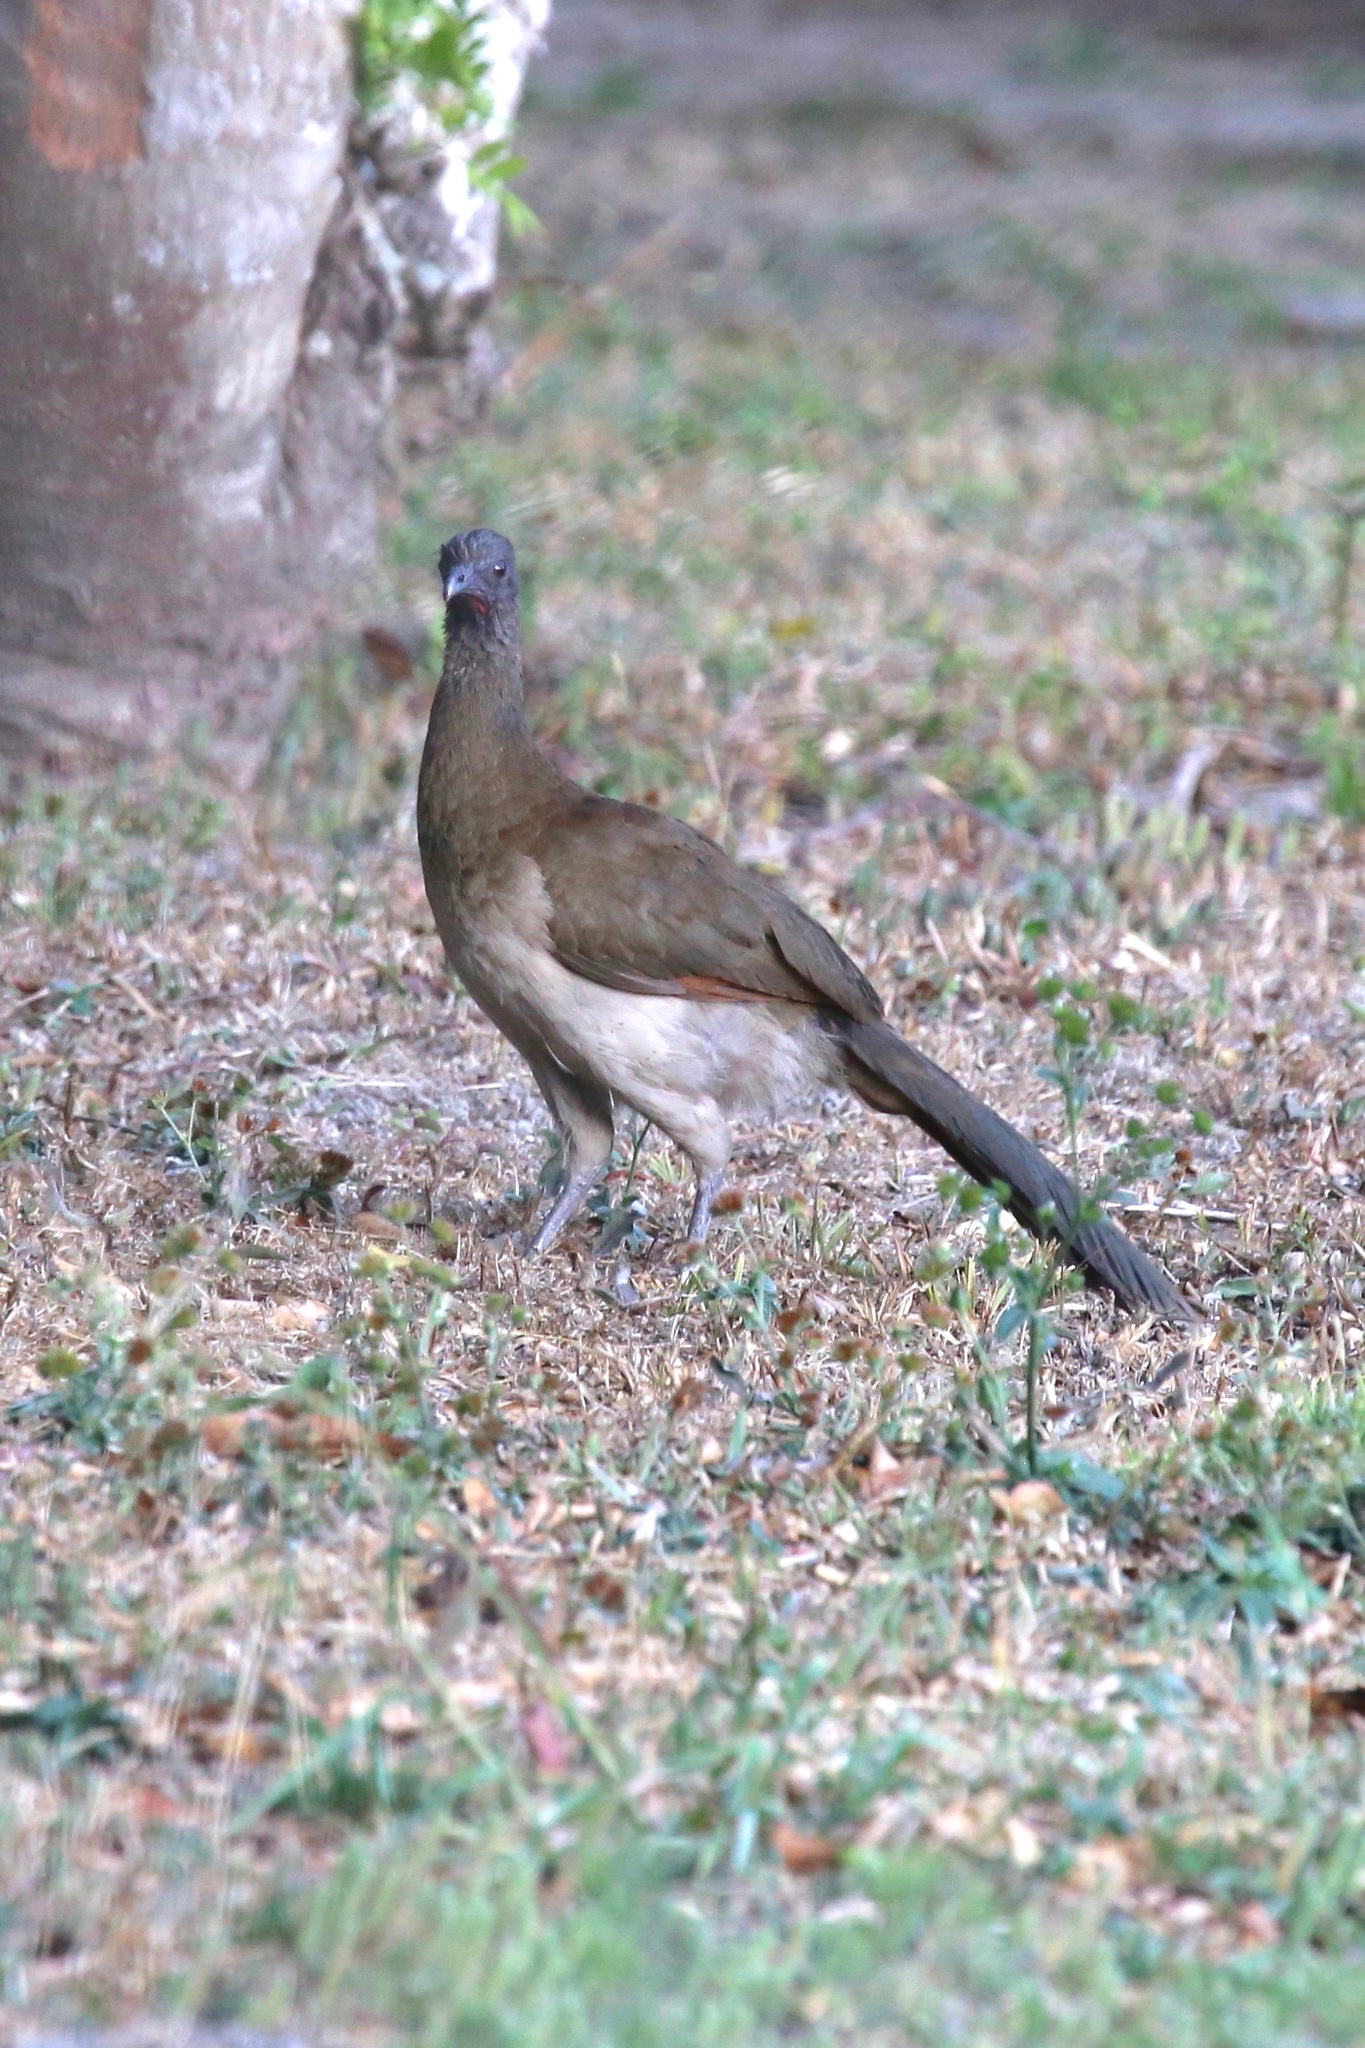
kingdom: Animalia
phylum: Chordata
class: Aves
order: Galliformes
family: Cracidae
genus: Ortalis
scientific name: Ortalis cinereiceps
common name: Grey-headed chachalaca
